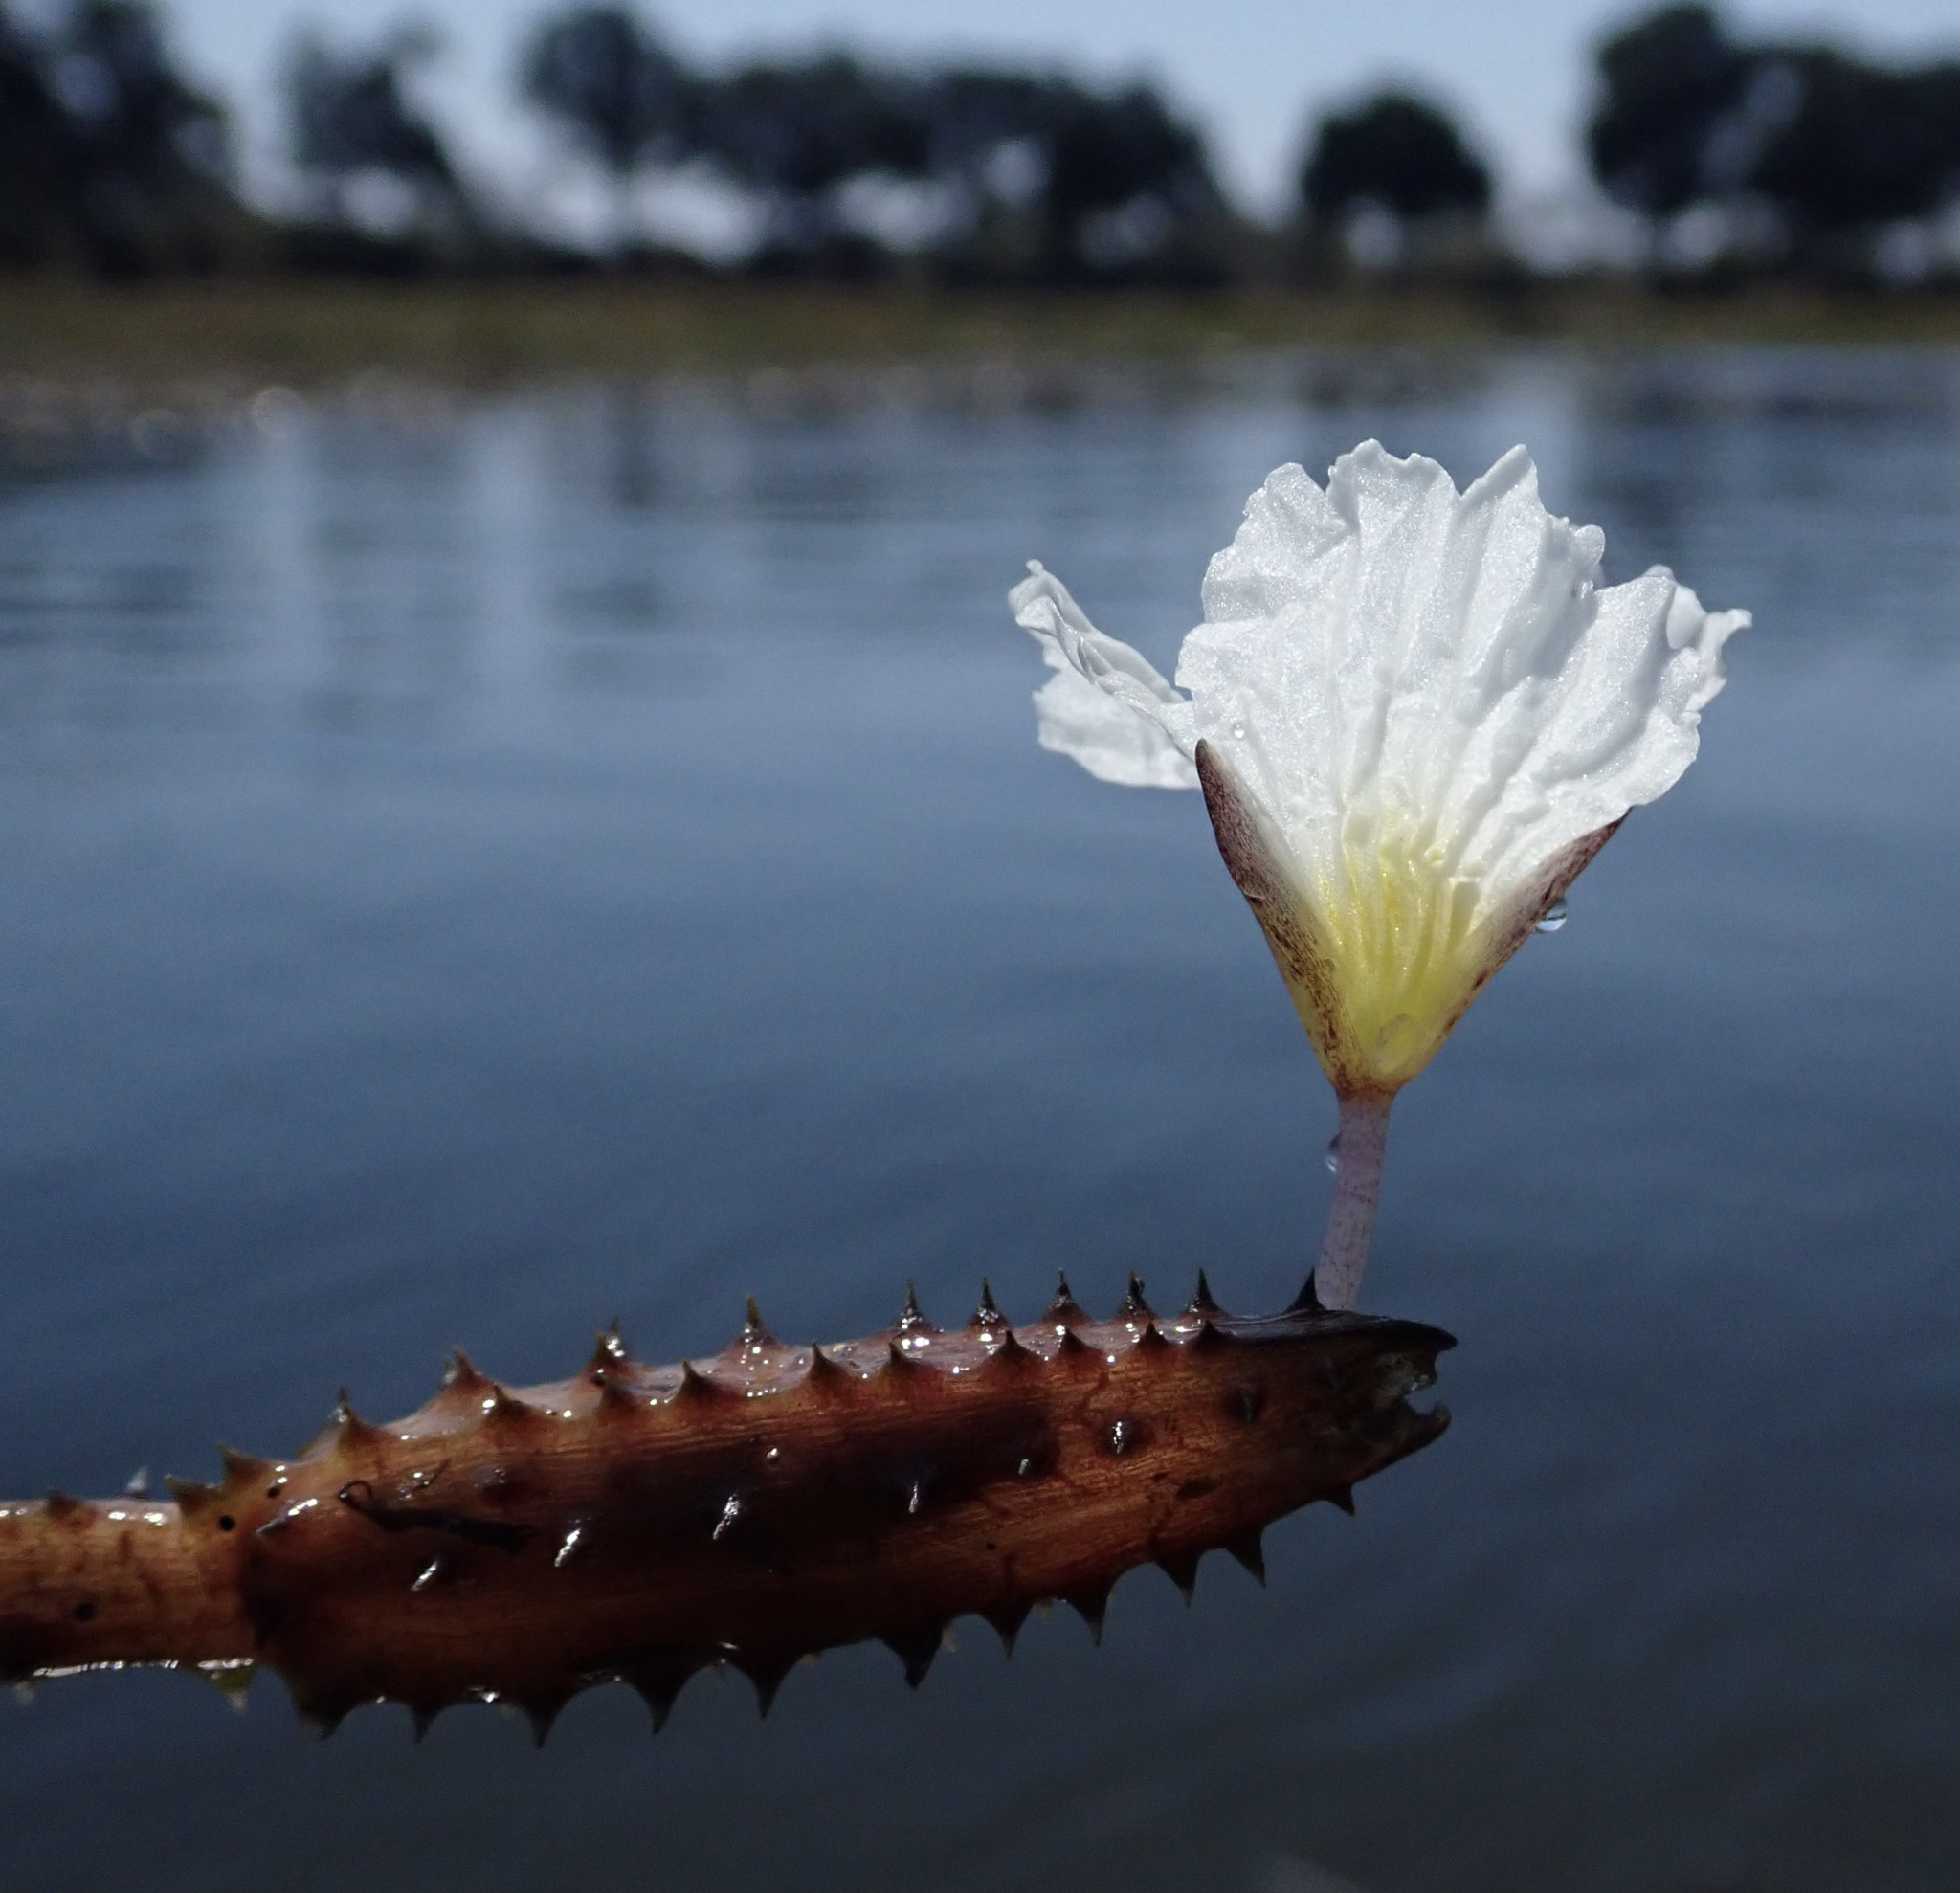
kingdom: Plantae
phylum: Tracheophyta
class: Liliopsida
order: Alismatales
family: Hydrocharitaceae
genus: Ottelia
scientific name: Ottelia muricata
